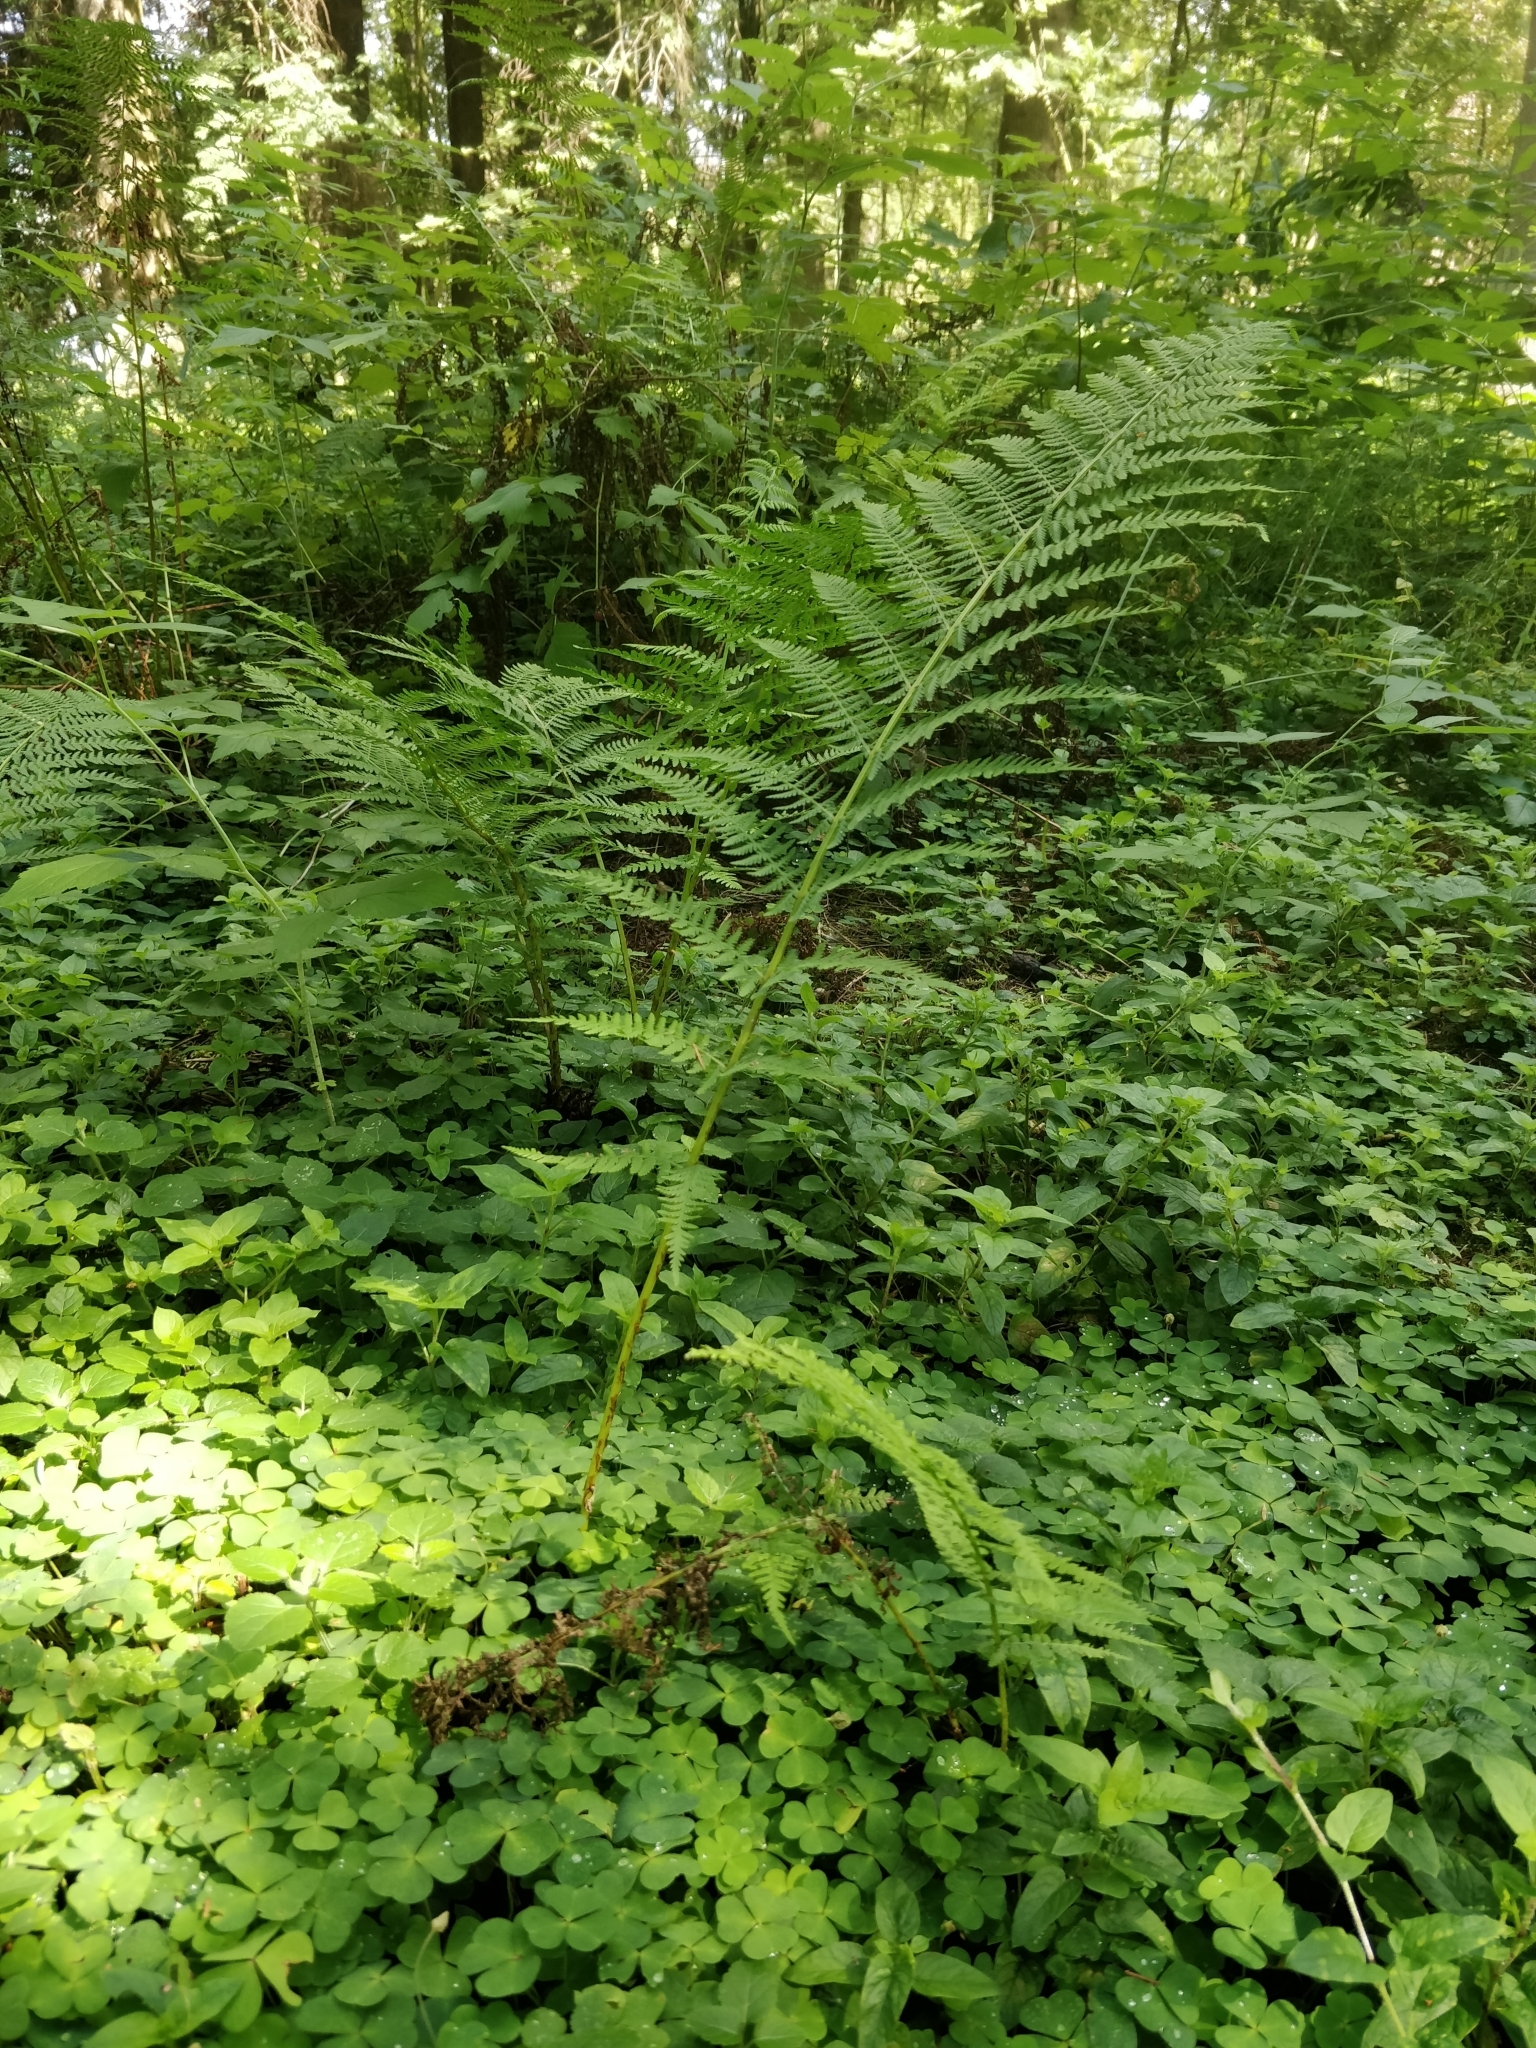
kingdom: Plantae
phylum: Tracheophyta
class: Polypodiopsida
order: Polypodiales
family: Athyriaceae
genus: Athyrium
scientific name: Athyrium filix-femina
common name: Lady fern
